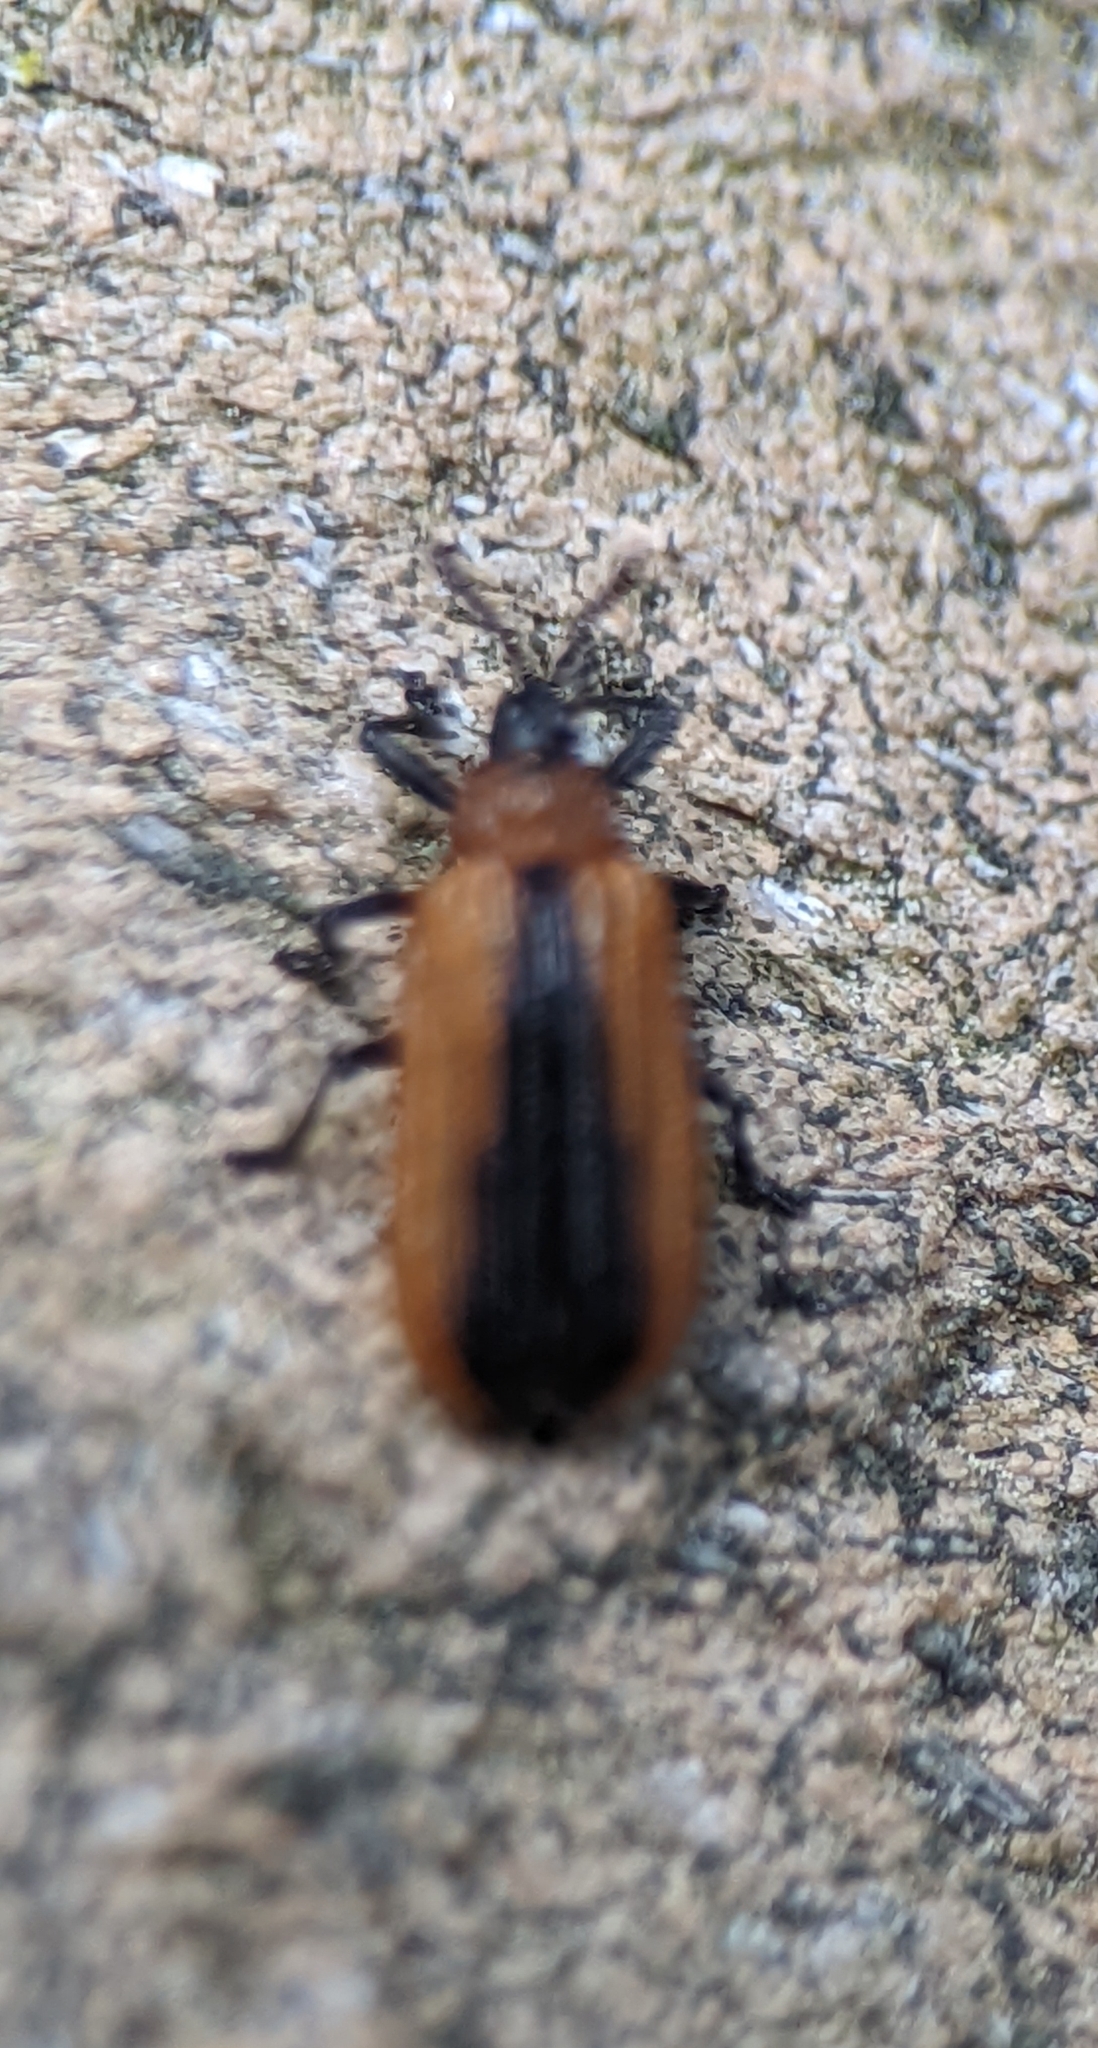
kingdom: Animalia
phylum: Arthropoda
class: Insecta
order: Coleoptera
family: Chrysomelidae
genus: Odontota
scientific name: Odontota dorsalis
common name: Locust leaf-miner beetle
